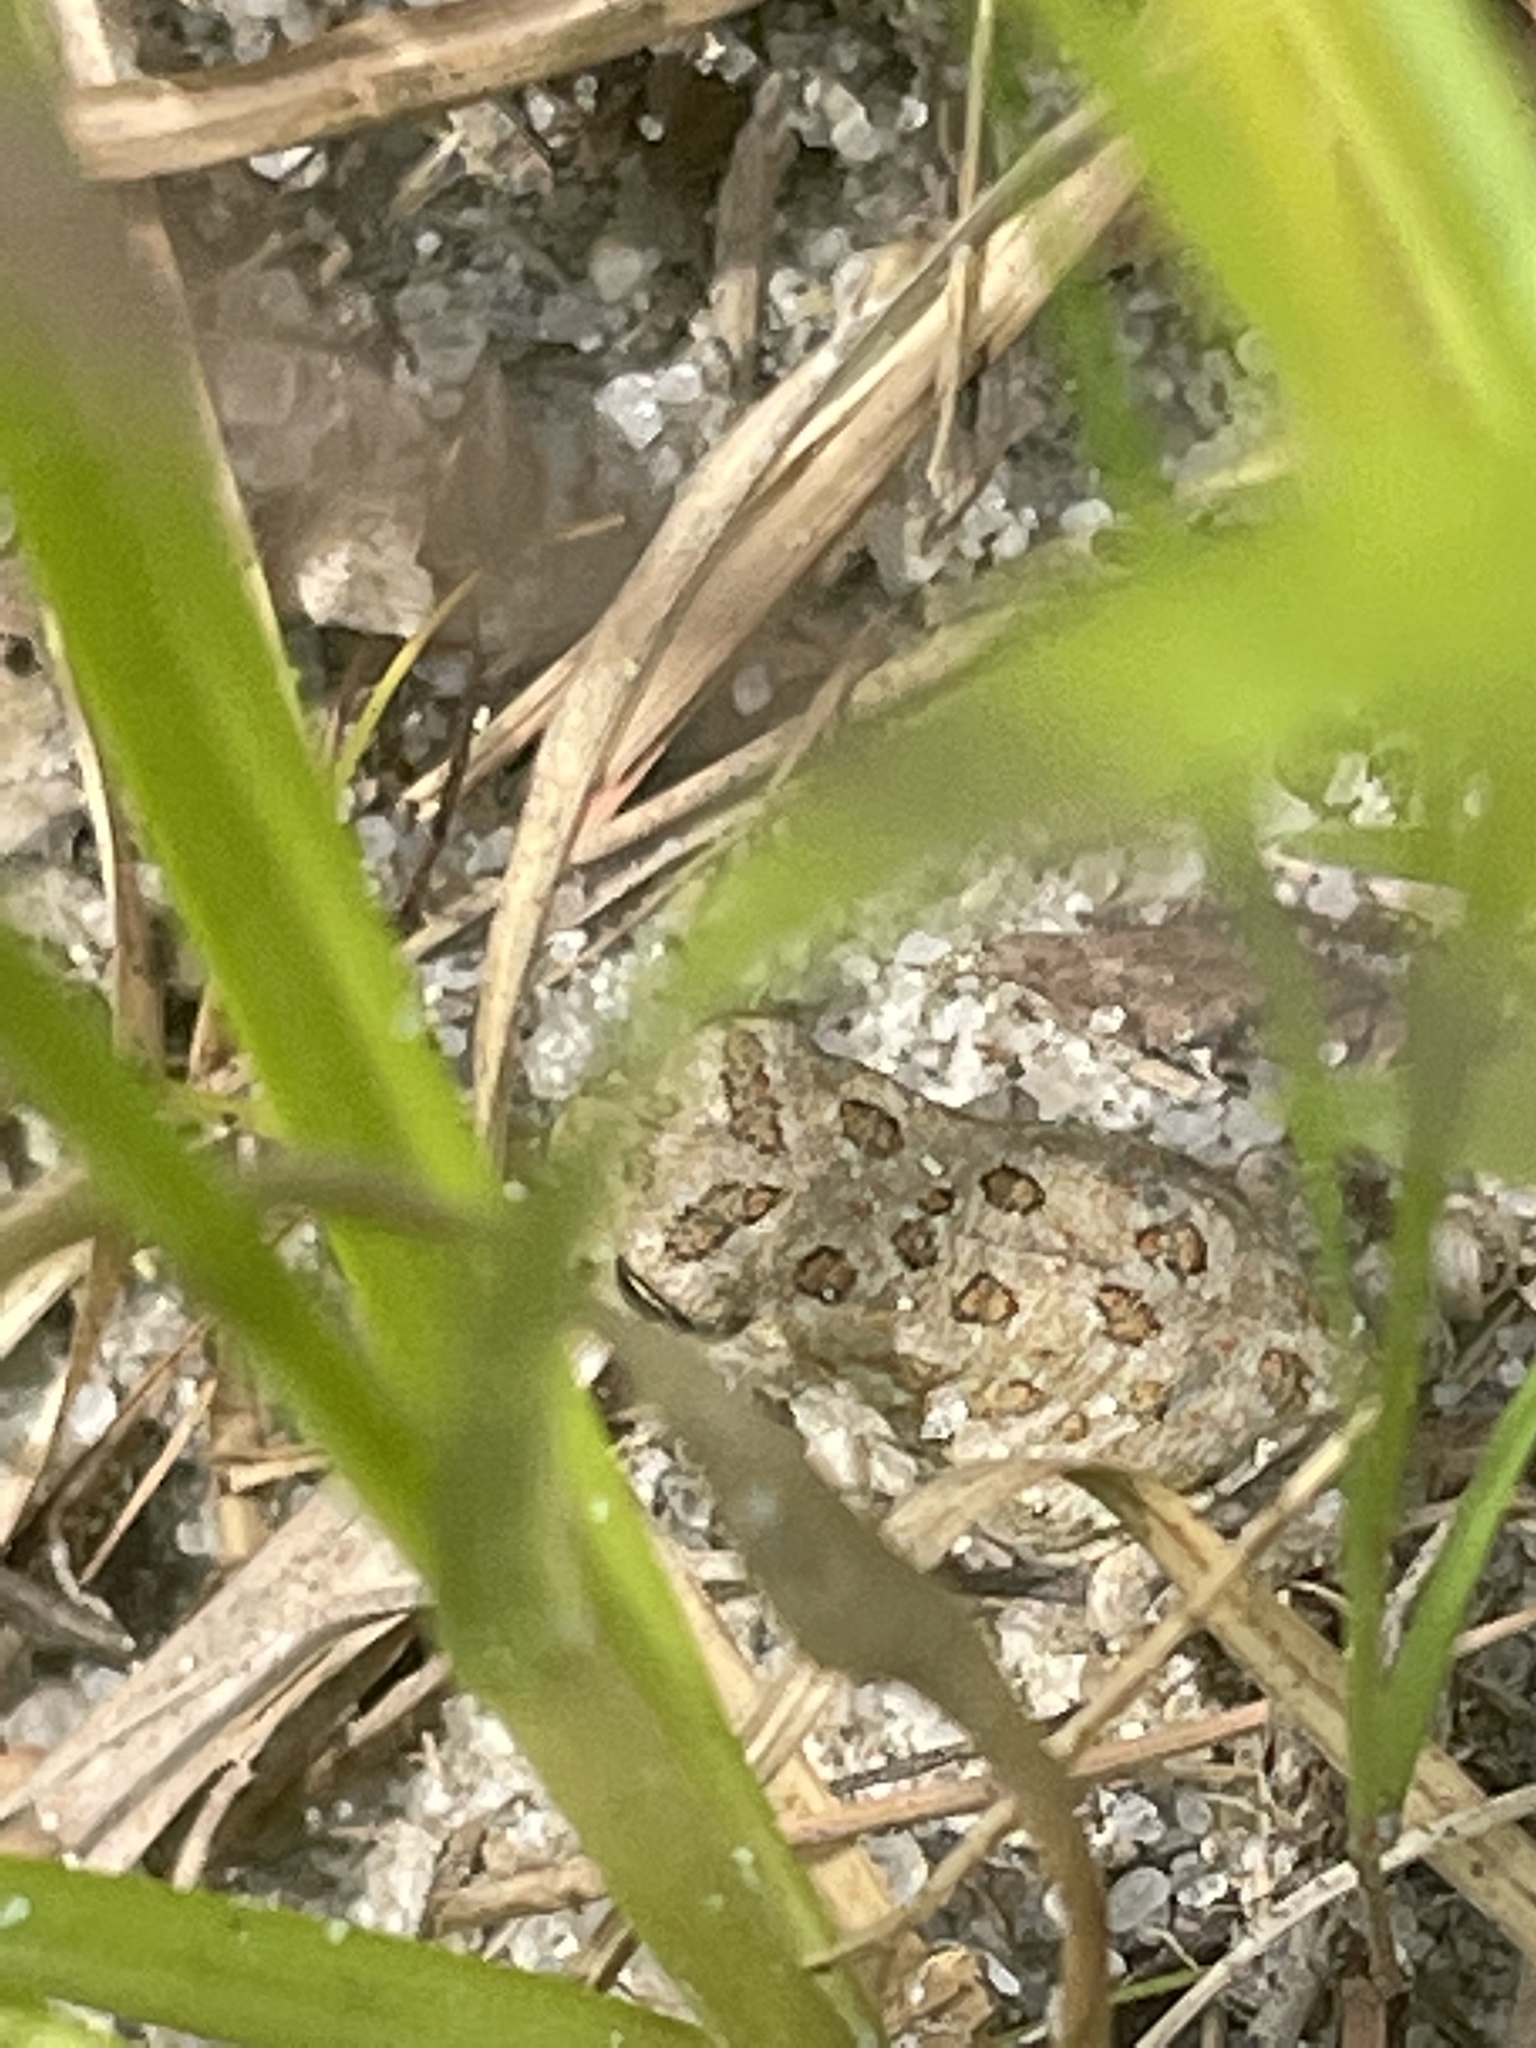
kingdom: Animalia
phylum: Chordata
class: Amphibia
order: Anura
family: Bufonidae
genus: Anaxyrus
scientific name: Anaxyrus fowleri
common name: Fowler's toad
